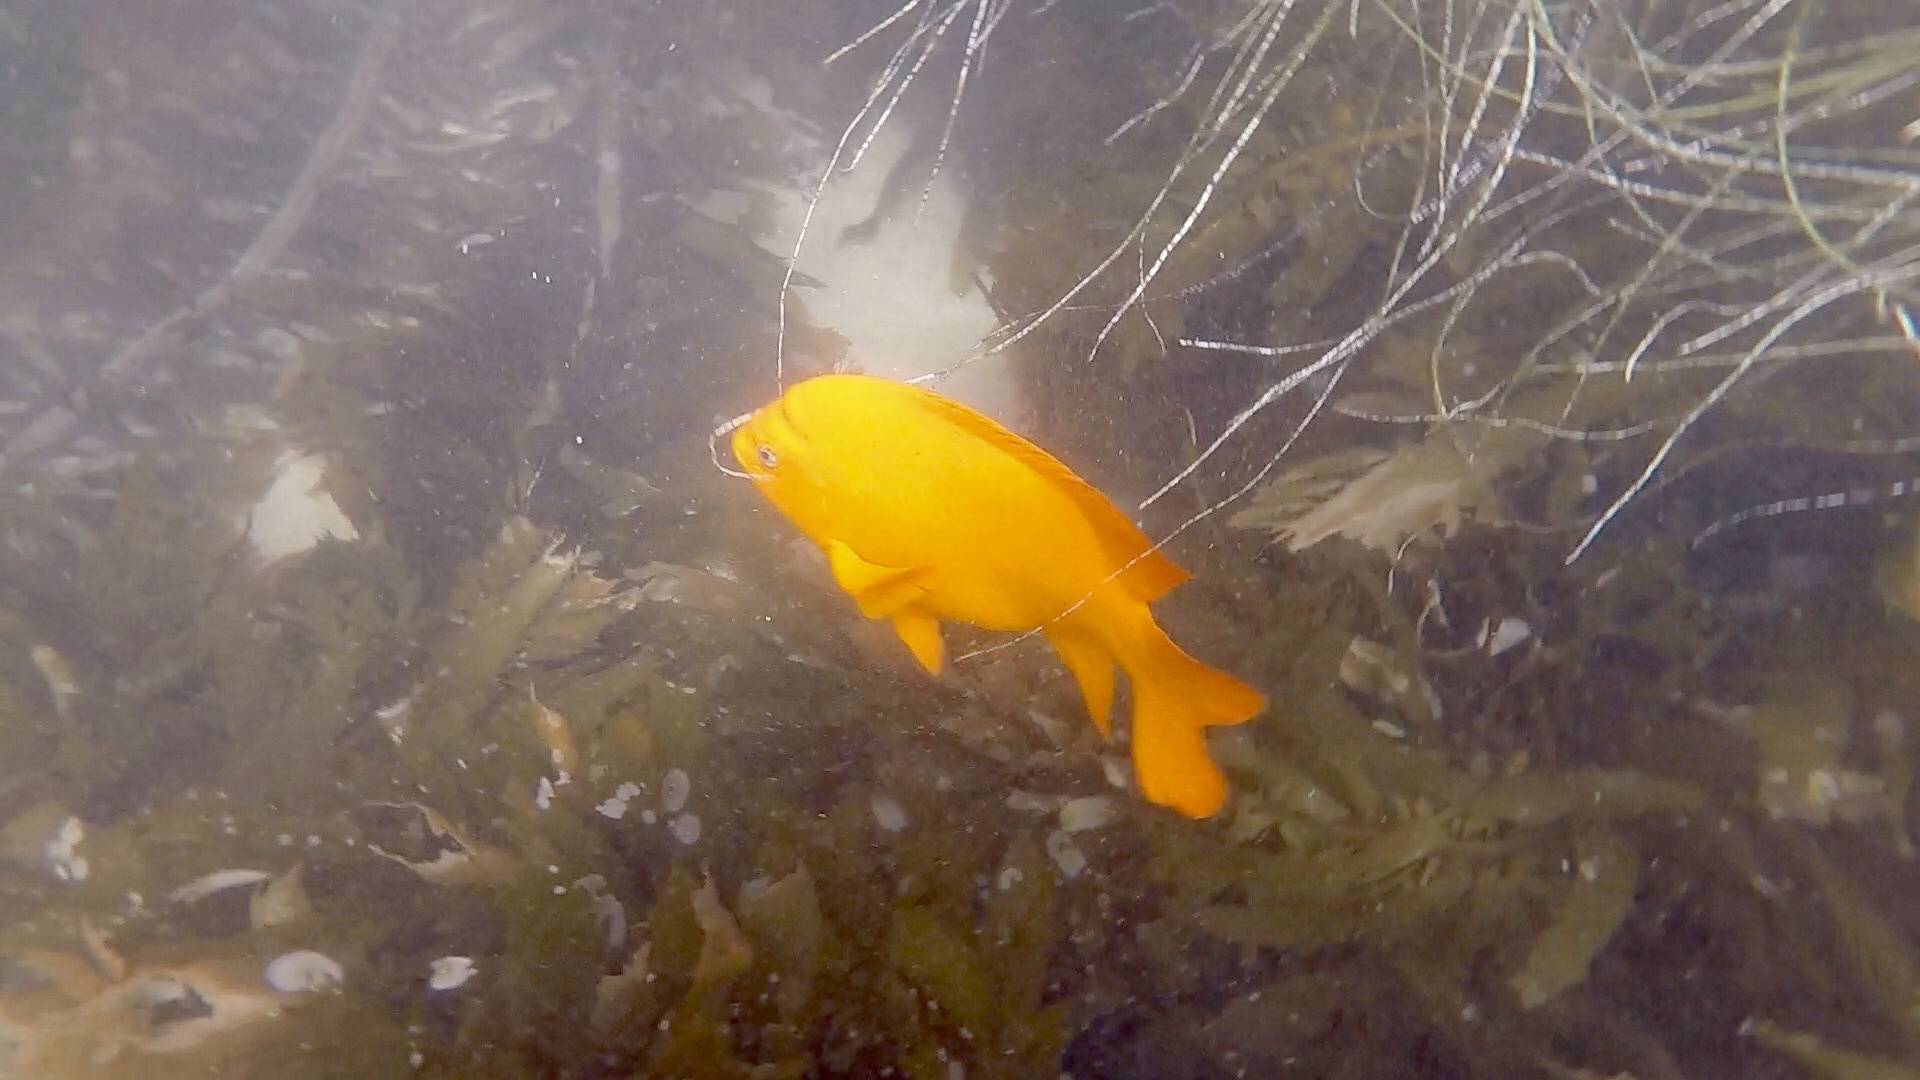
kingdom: Animalia
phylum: Chordata
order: Perciformes
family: Pomacentridae
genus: Hypsypops
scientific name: Hypsypops rubicundus
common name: Garibaldi
